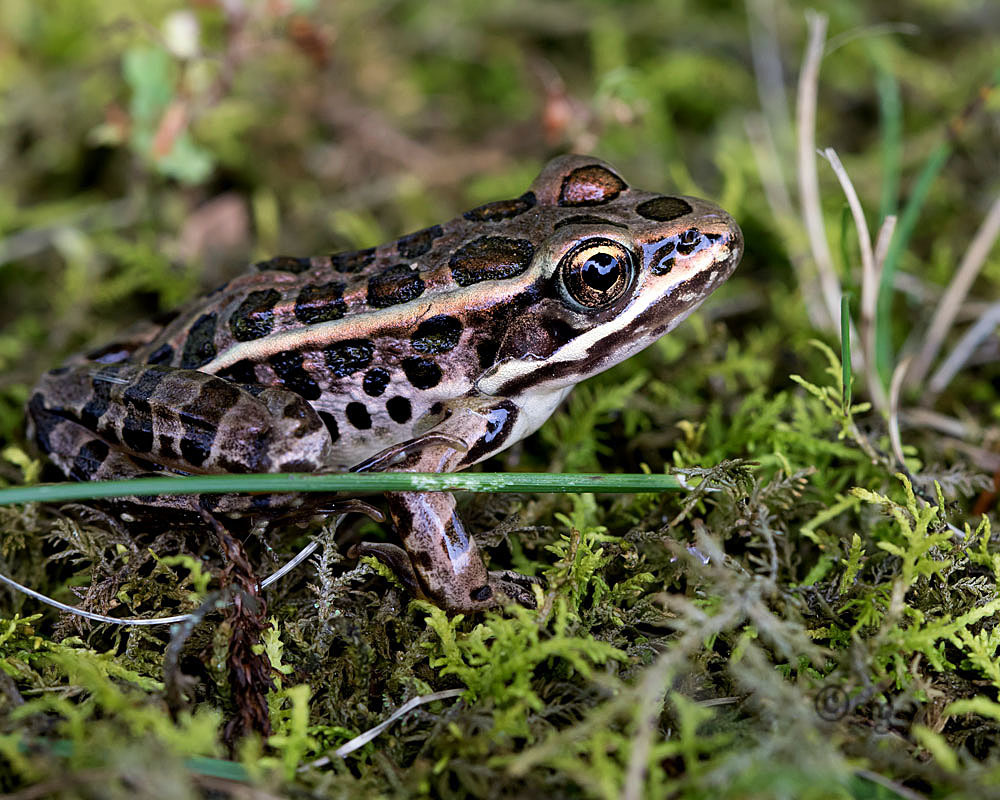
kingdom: Animalia
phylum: Chordata
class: Amphibia
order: Anura
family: Ranidae
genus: Lithobates
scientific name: Lithobates palustris
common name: Pickerel frog
